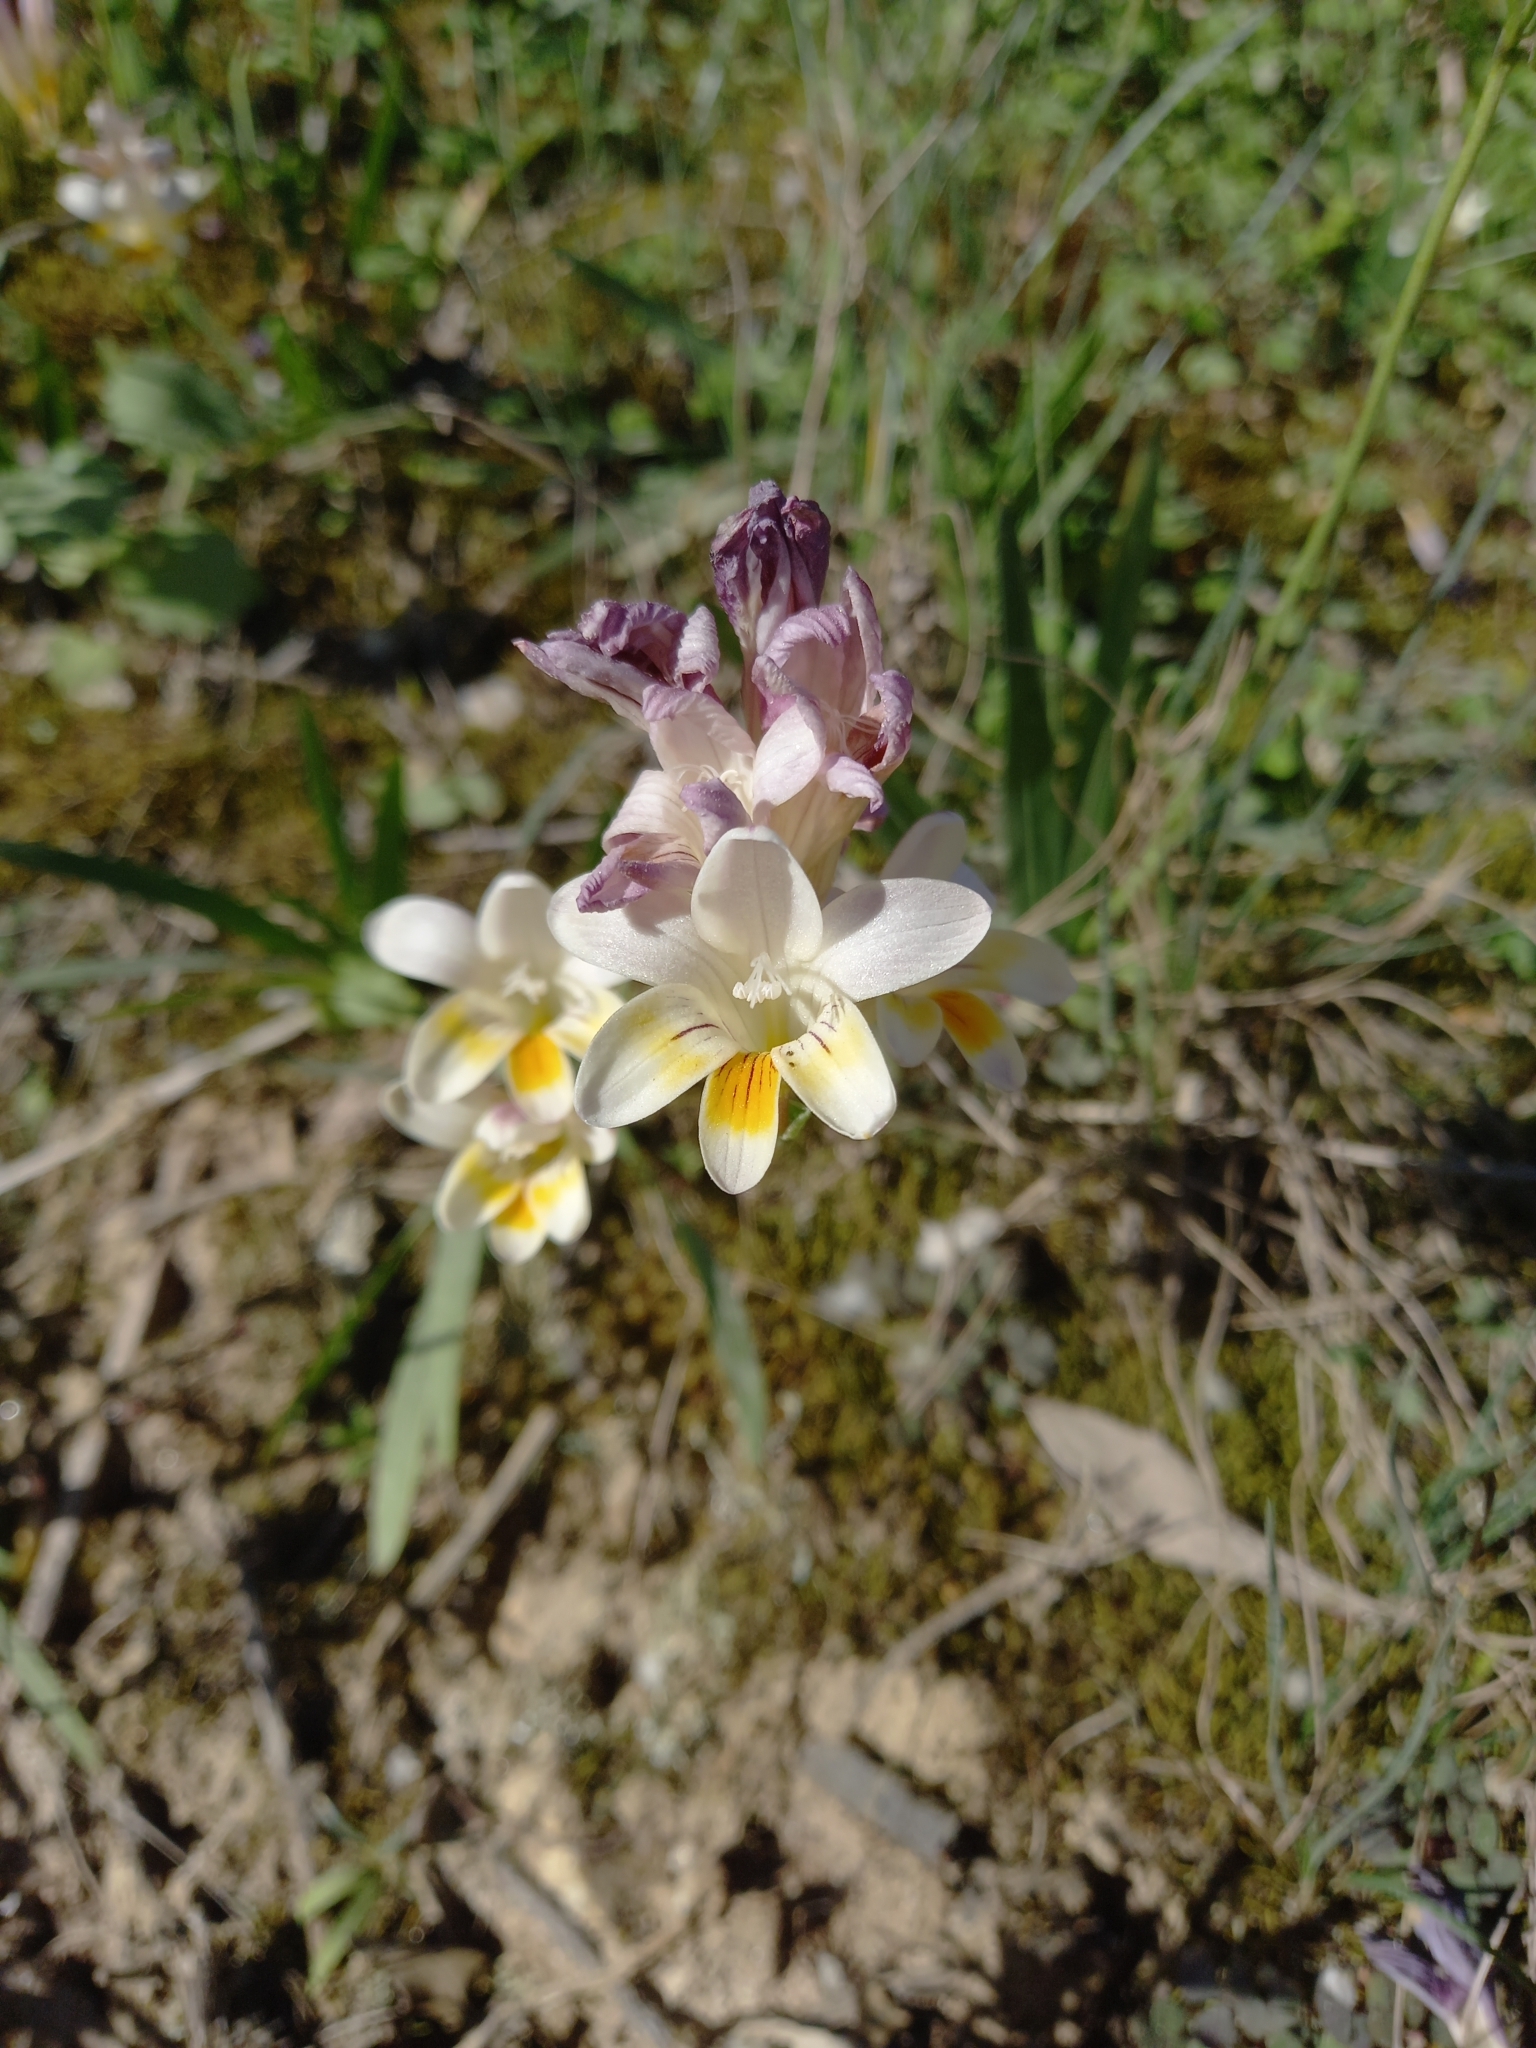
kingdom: Plantae
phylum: Tracheophyta
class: Liliopsida
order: Asparagales
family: Iridaceae
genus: Freesia
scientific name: Freesia leichtlinii
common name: Freesia
